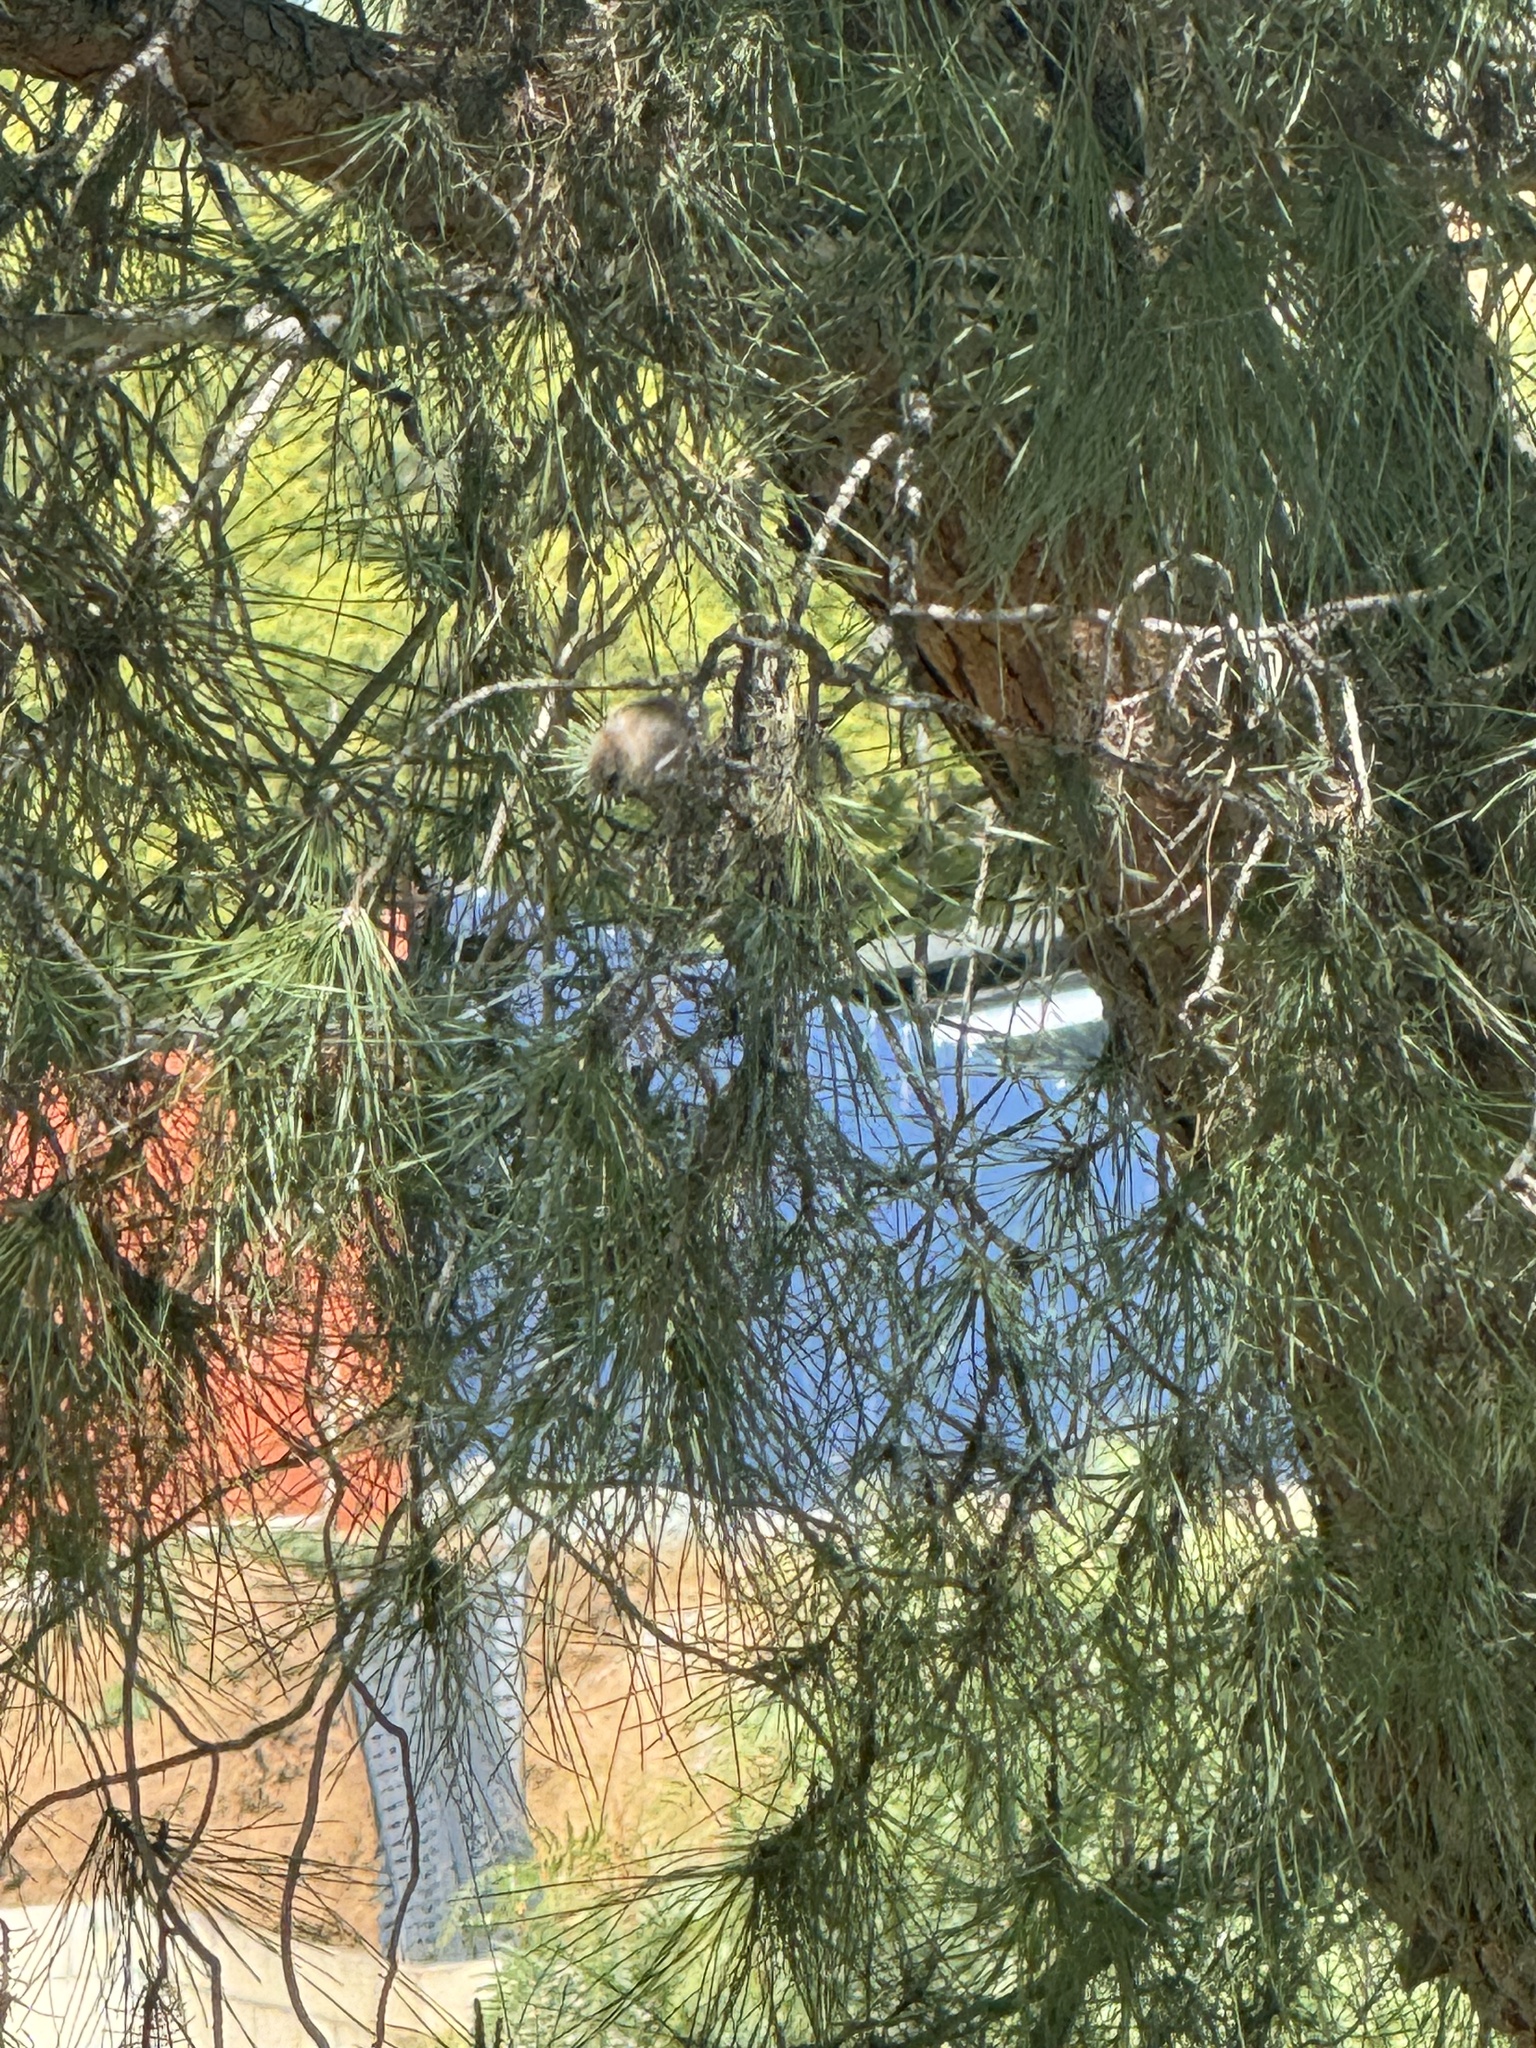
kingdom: Animalia
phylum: Chordata
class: Aves
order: Passeriformes
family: Aegithalidae
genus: Psaltriparus
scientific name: Psaltriparus minimus
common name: American bushtit
